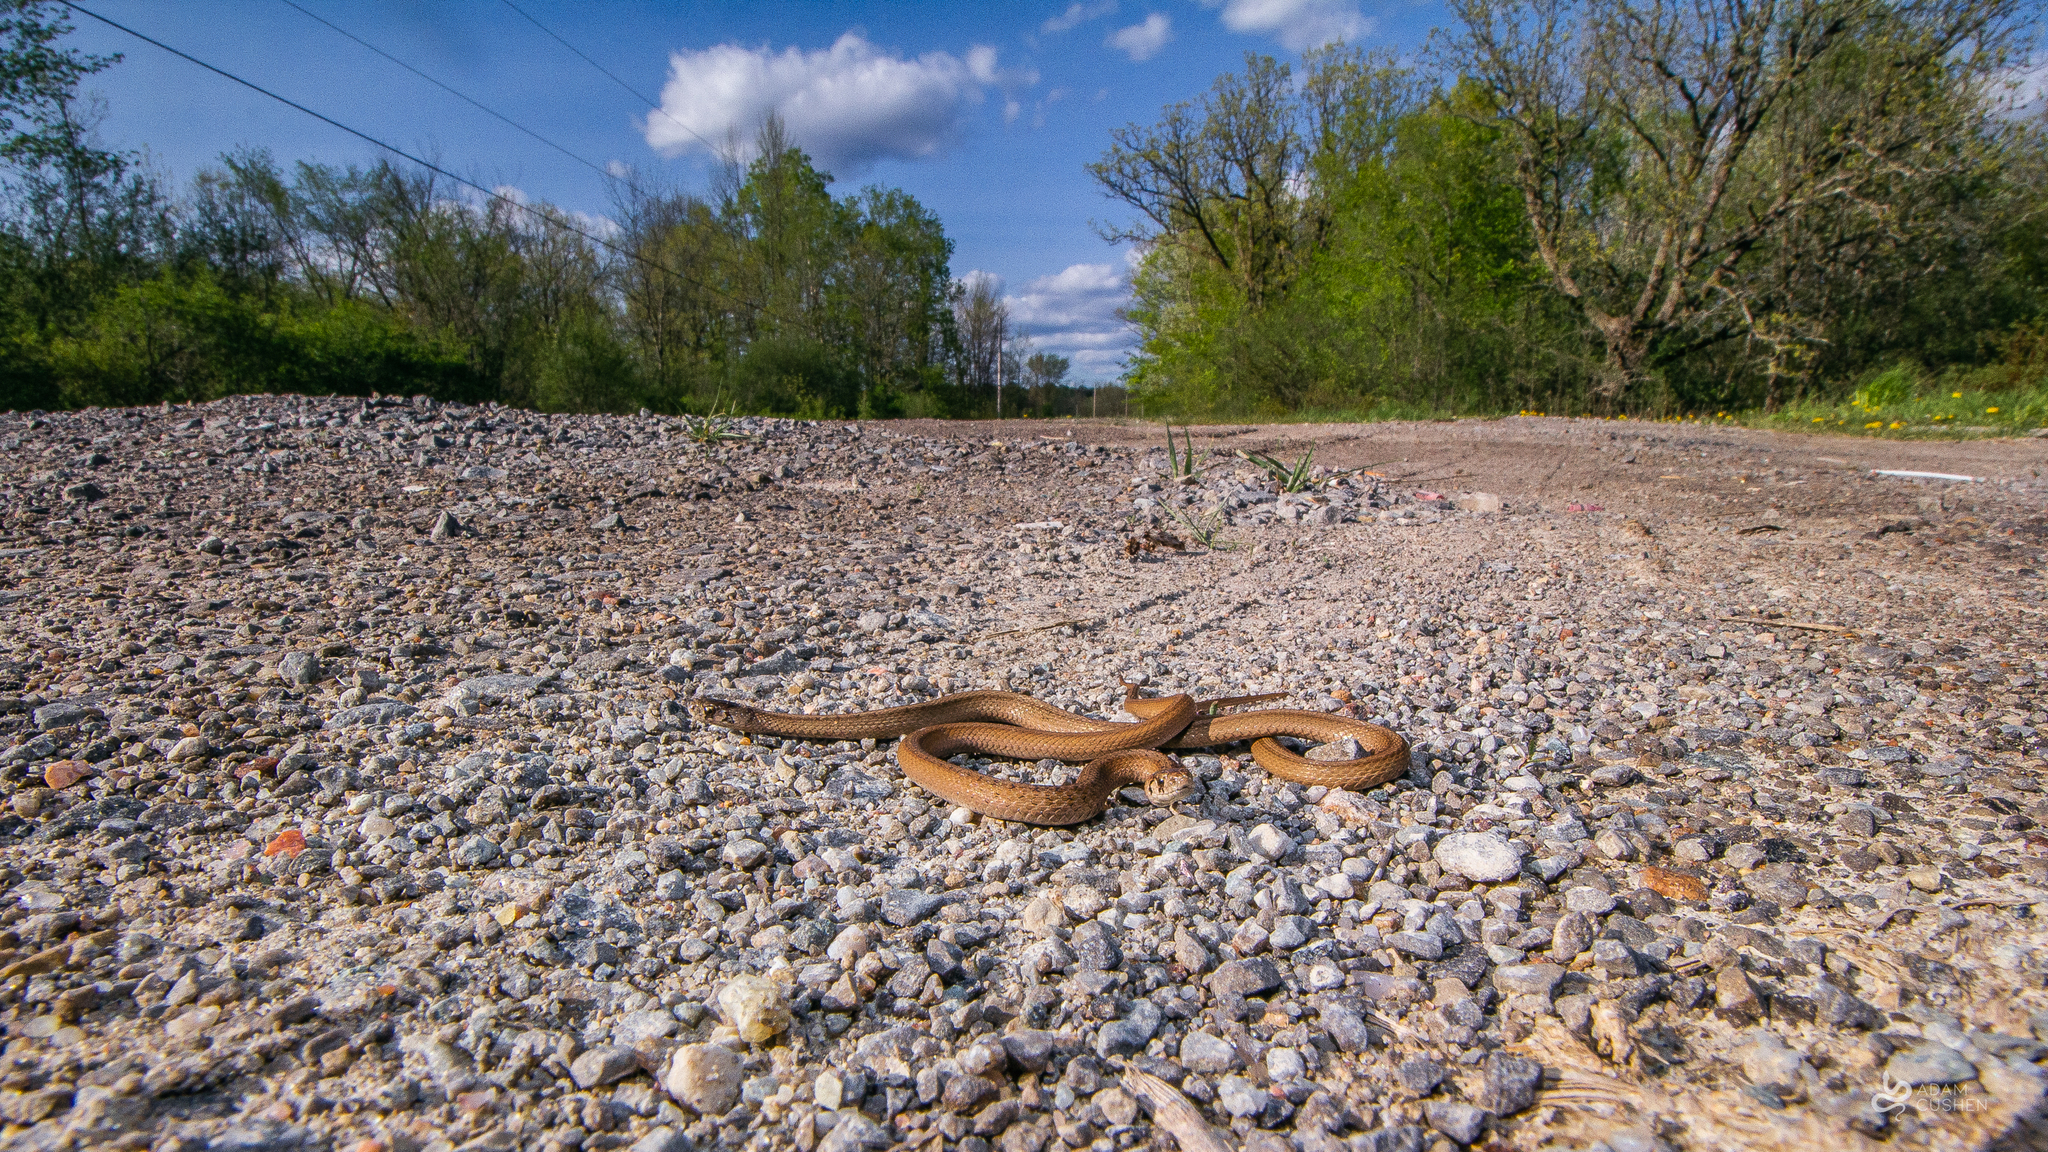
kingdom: Animalia
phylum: Chordata
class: Squamata
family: Colubridae
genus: Storeria
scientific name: Storeria dekayi
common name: (dekay’s) brown snake
